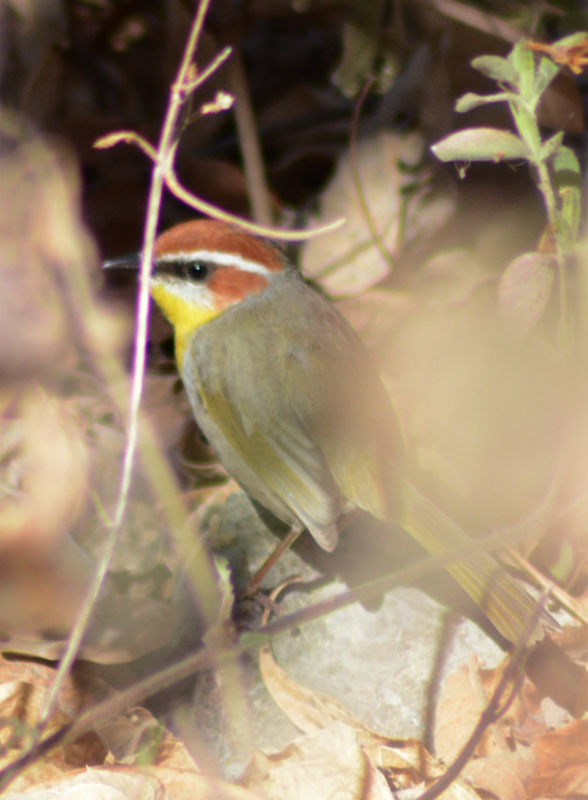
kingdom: Animalia
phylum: Chordata
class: Aves
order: Passeriformes
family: Parulidae
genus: Basileuterus
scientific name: Basileuterus rufifrons
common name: Rufous-capped warbler
